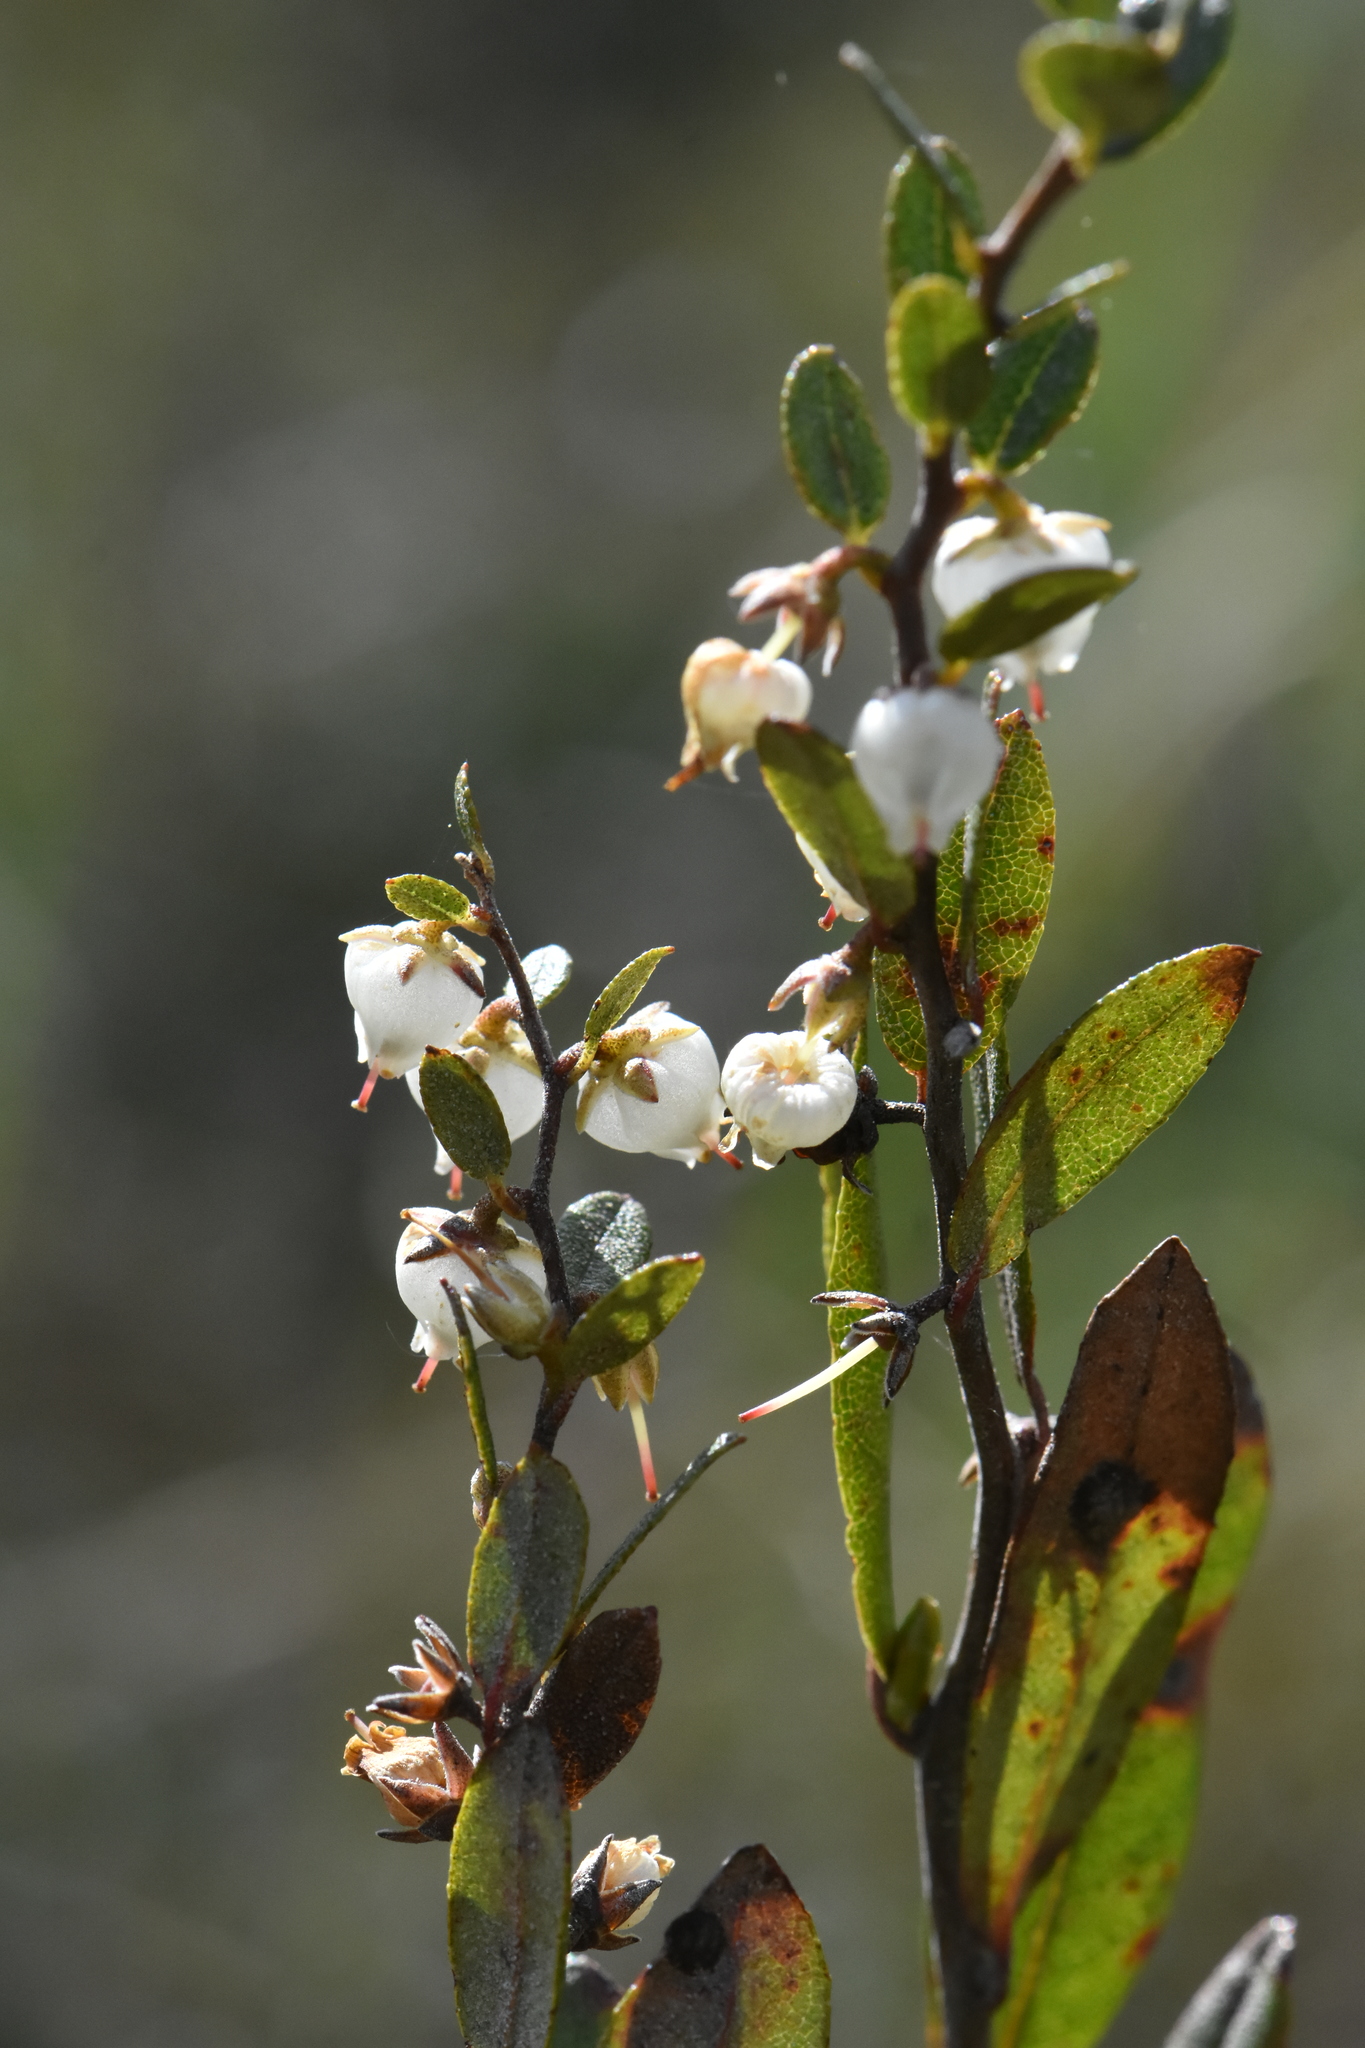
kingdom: Plantae
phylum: Tracheophyta
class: Magnoliopsida
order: Ericales
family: Ericaceae
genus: Chamaedaphne
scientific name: Chamaedaphne calyculata
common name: Leatherleaf
